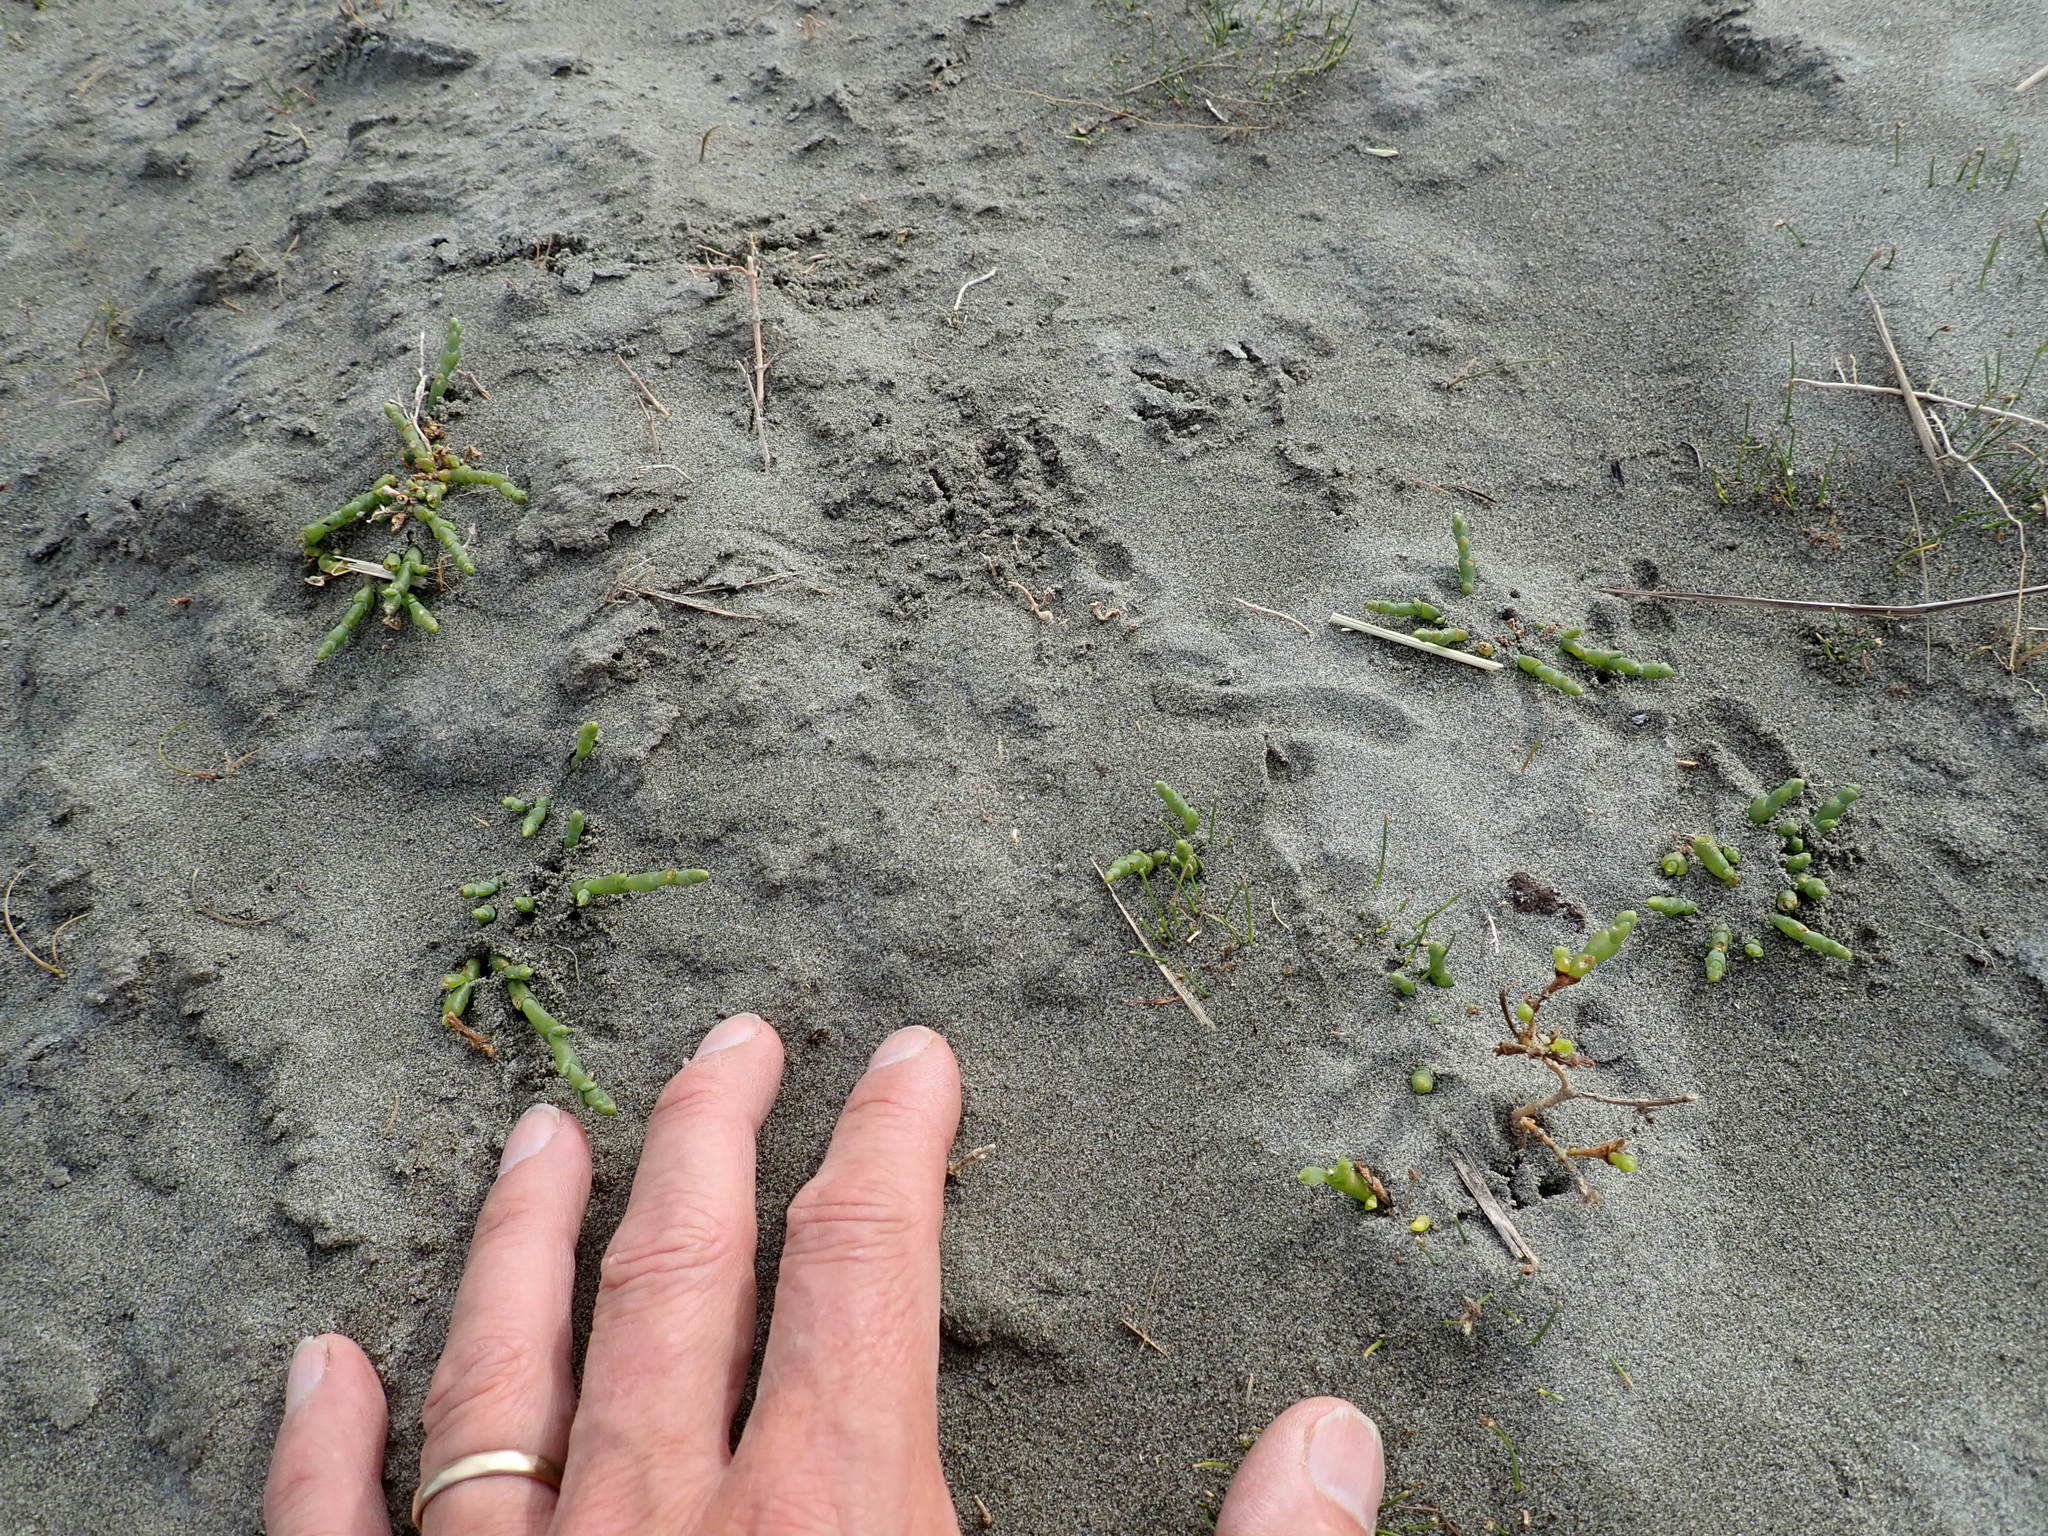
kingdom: Plantae
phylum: Tracheophyta
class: Magnoliopsida
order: Caryophyllales
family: Amaranthaceae
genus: Salicornia
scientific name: Salicornia quinqueflora
